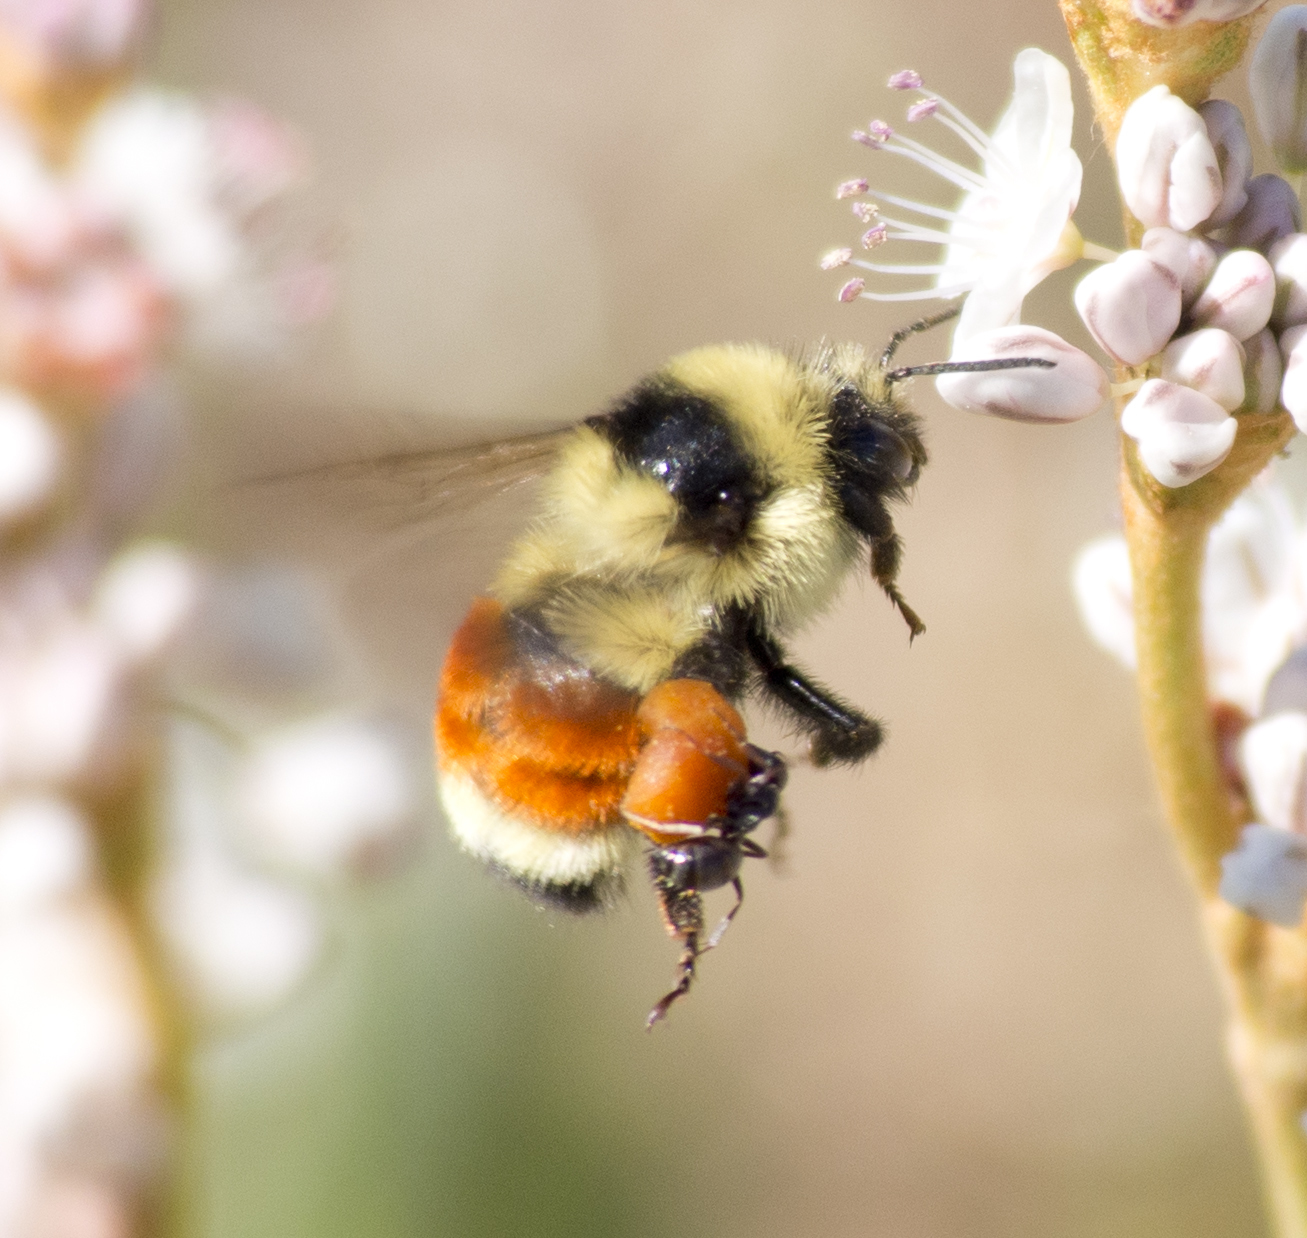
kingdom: Animalia
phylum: Arthropoda
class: Insecta
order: Hymenoptera
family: Apidae
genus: Bombus
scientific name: Bombus huntii
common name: Hunt bumble bee
